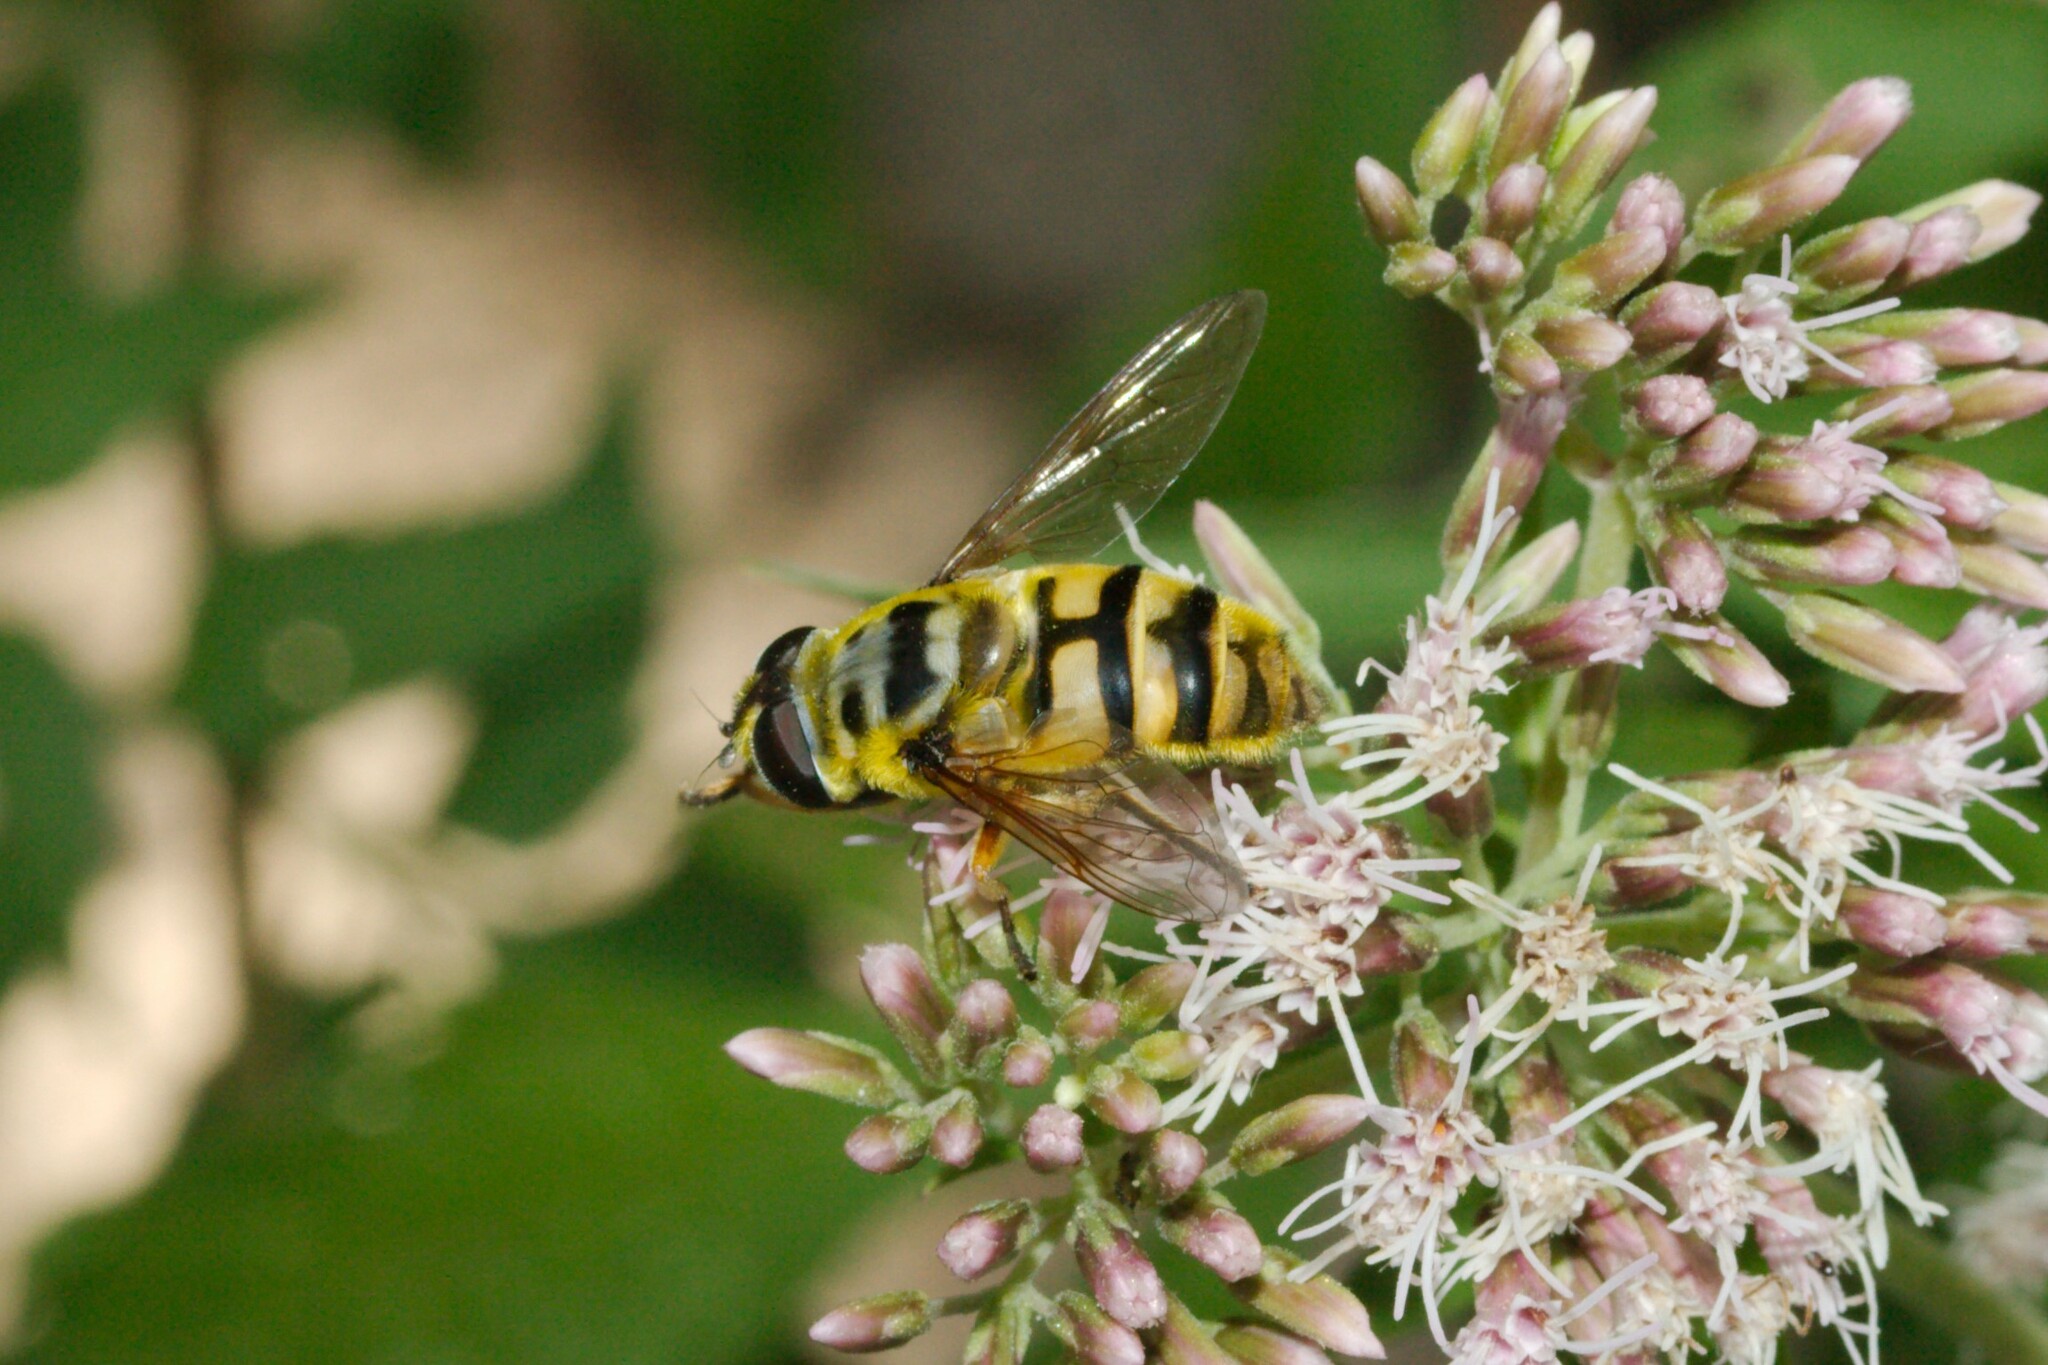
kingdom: Animalia
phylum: Arthropoda
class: Insecta
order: Diptera
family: Syrphidae
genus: Myathropa
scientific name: Myathropa florea
